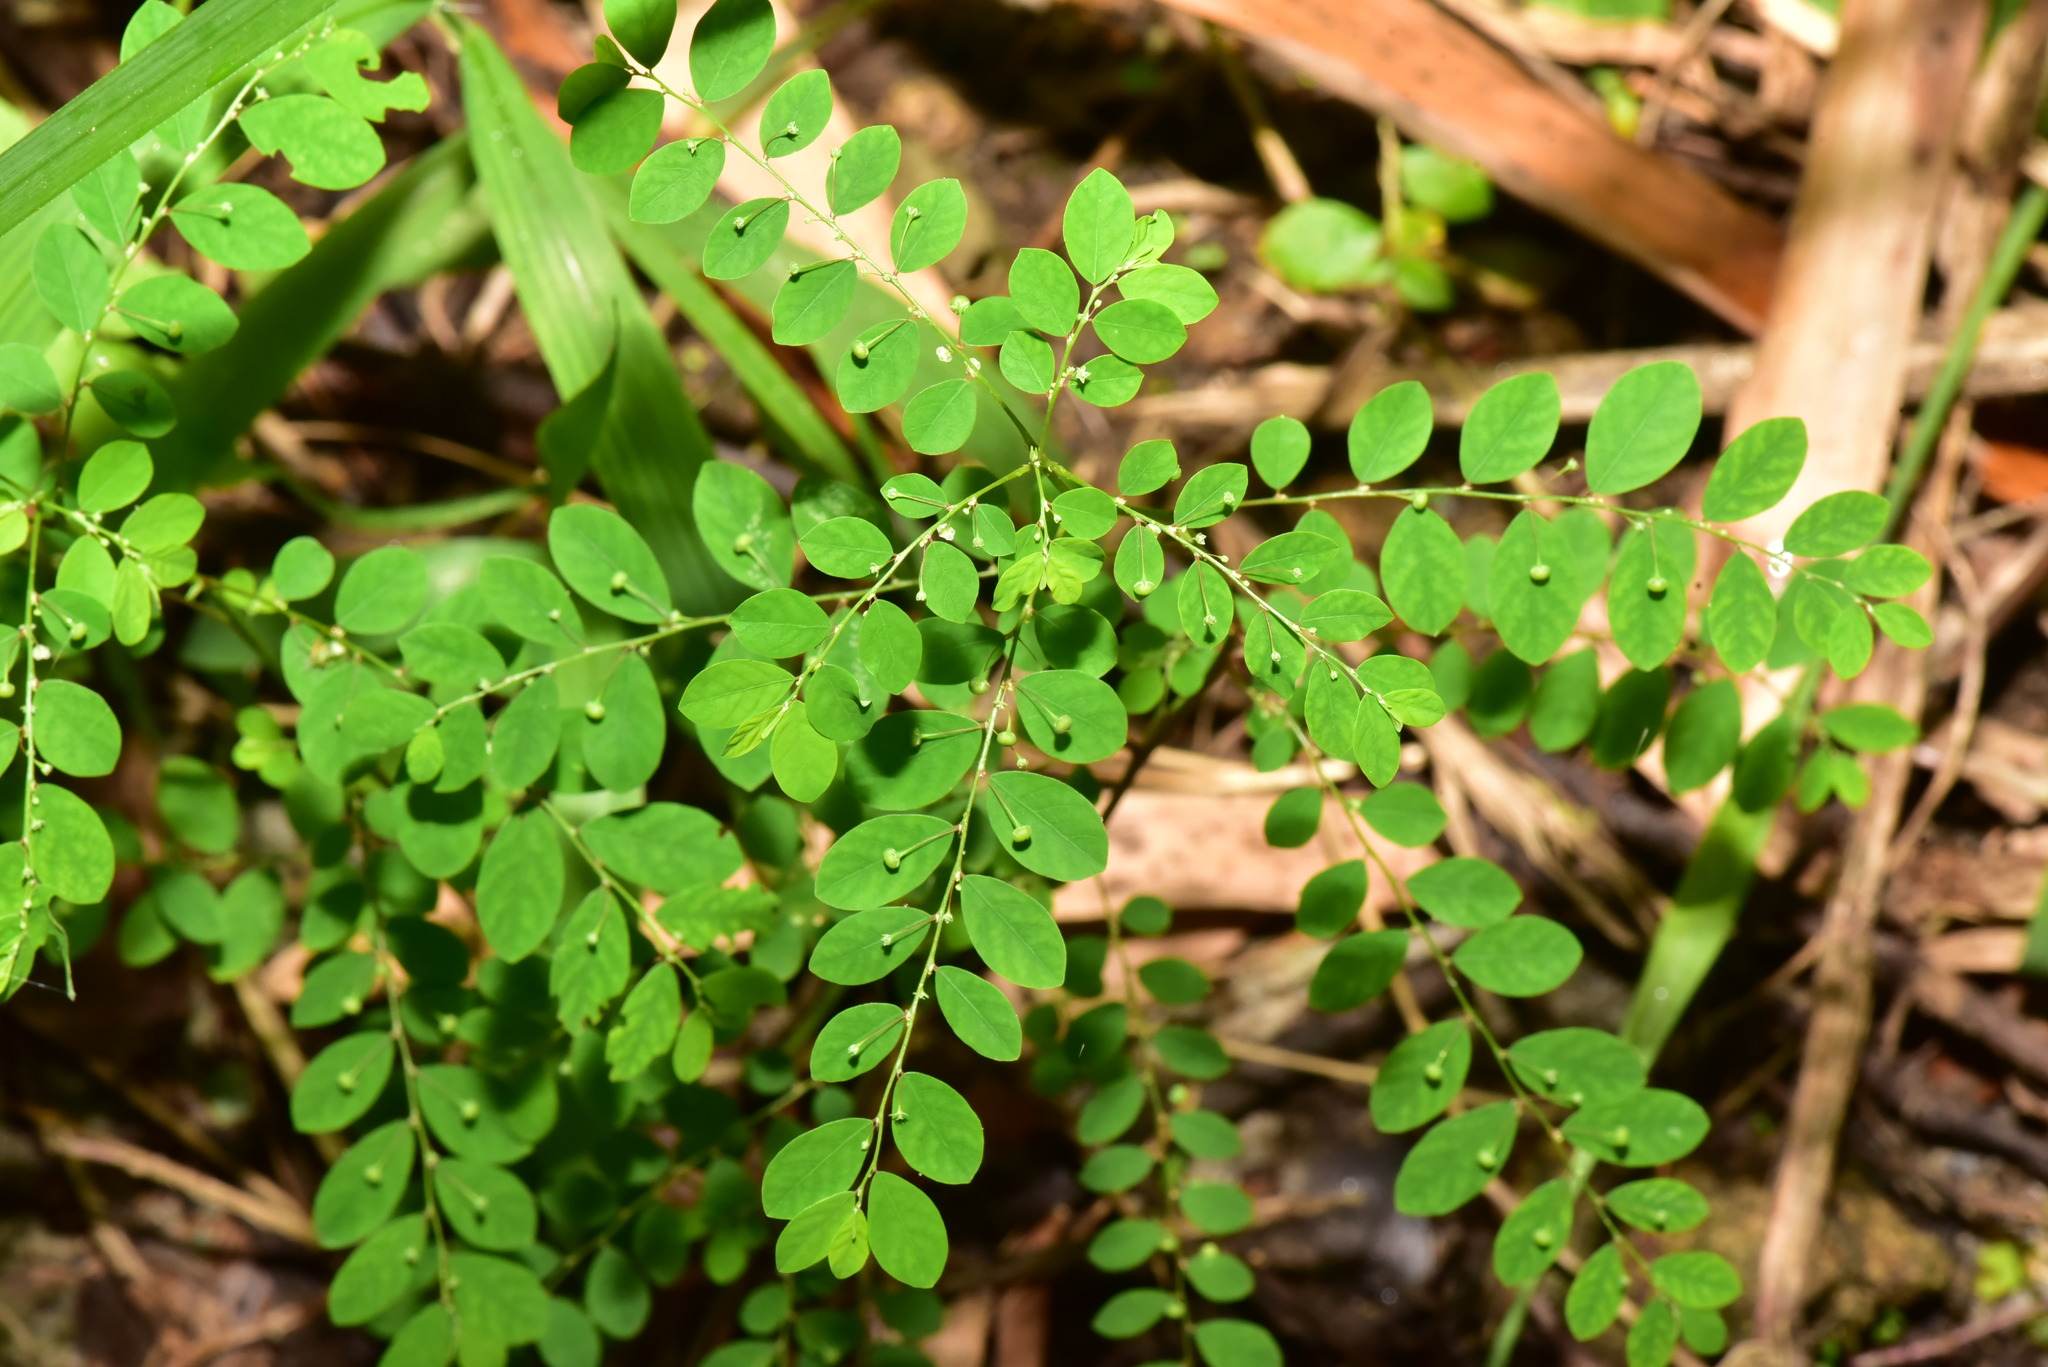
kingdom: Plantae
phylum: Tracheophyta
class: Magnoliopsida
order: Malpighiales
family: Phyllanthaceae
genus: Phyllanthus
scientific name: Phyllanthus tenellus
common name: Mascarene island leaf-flower
